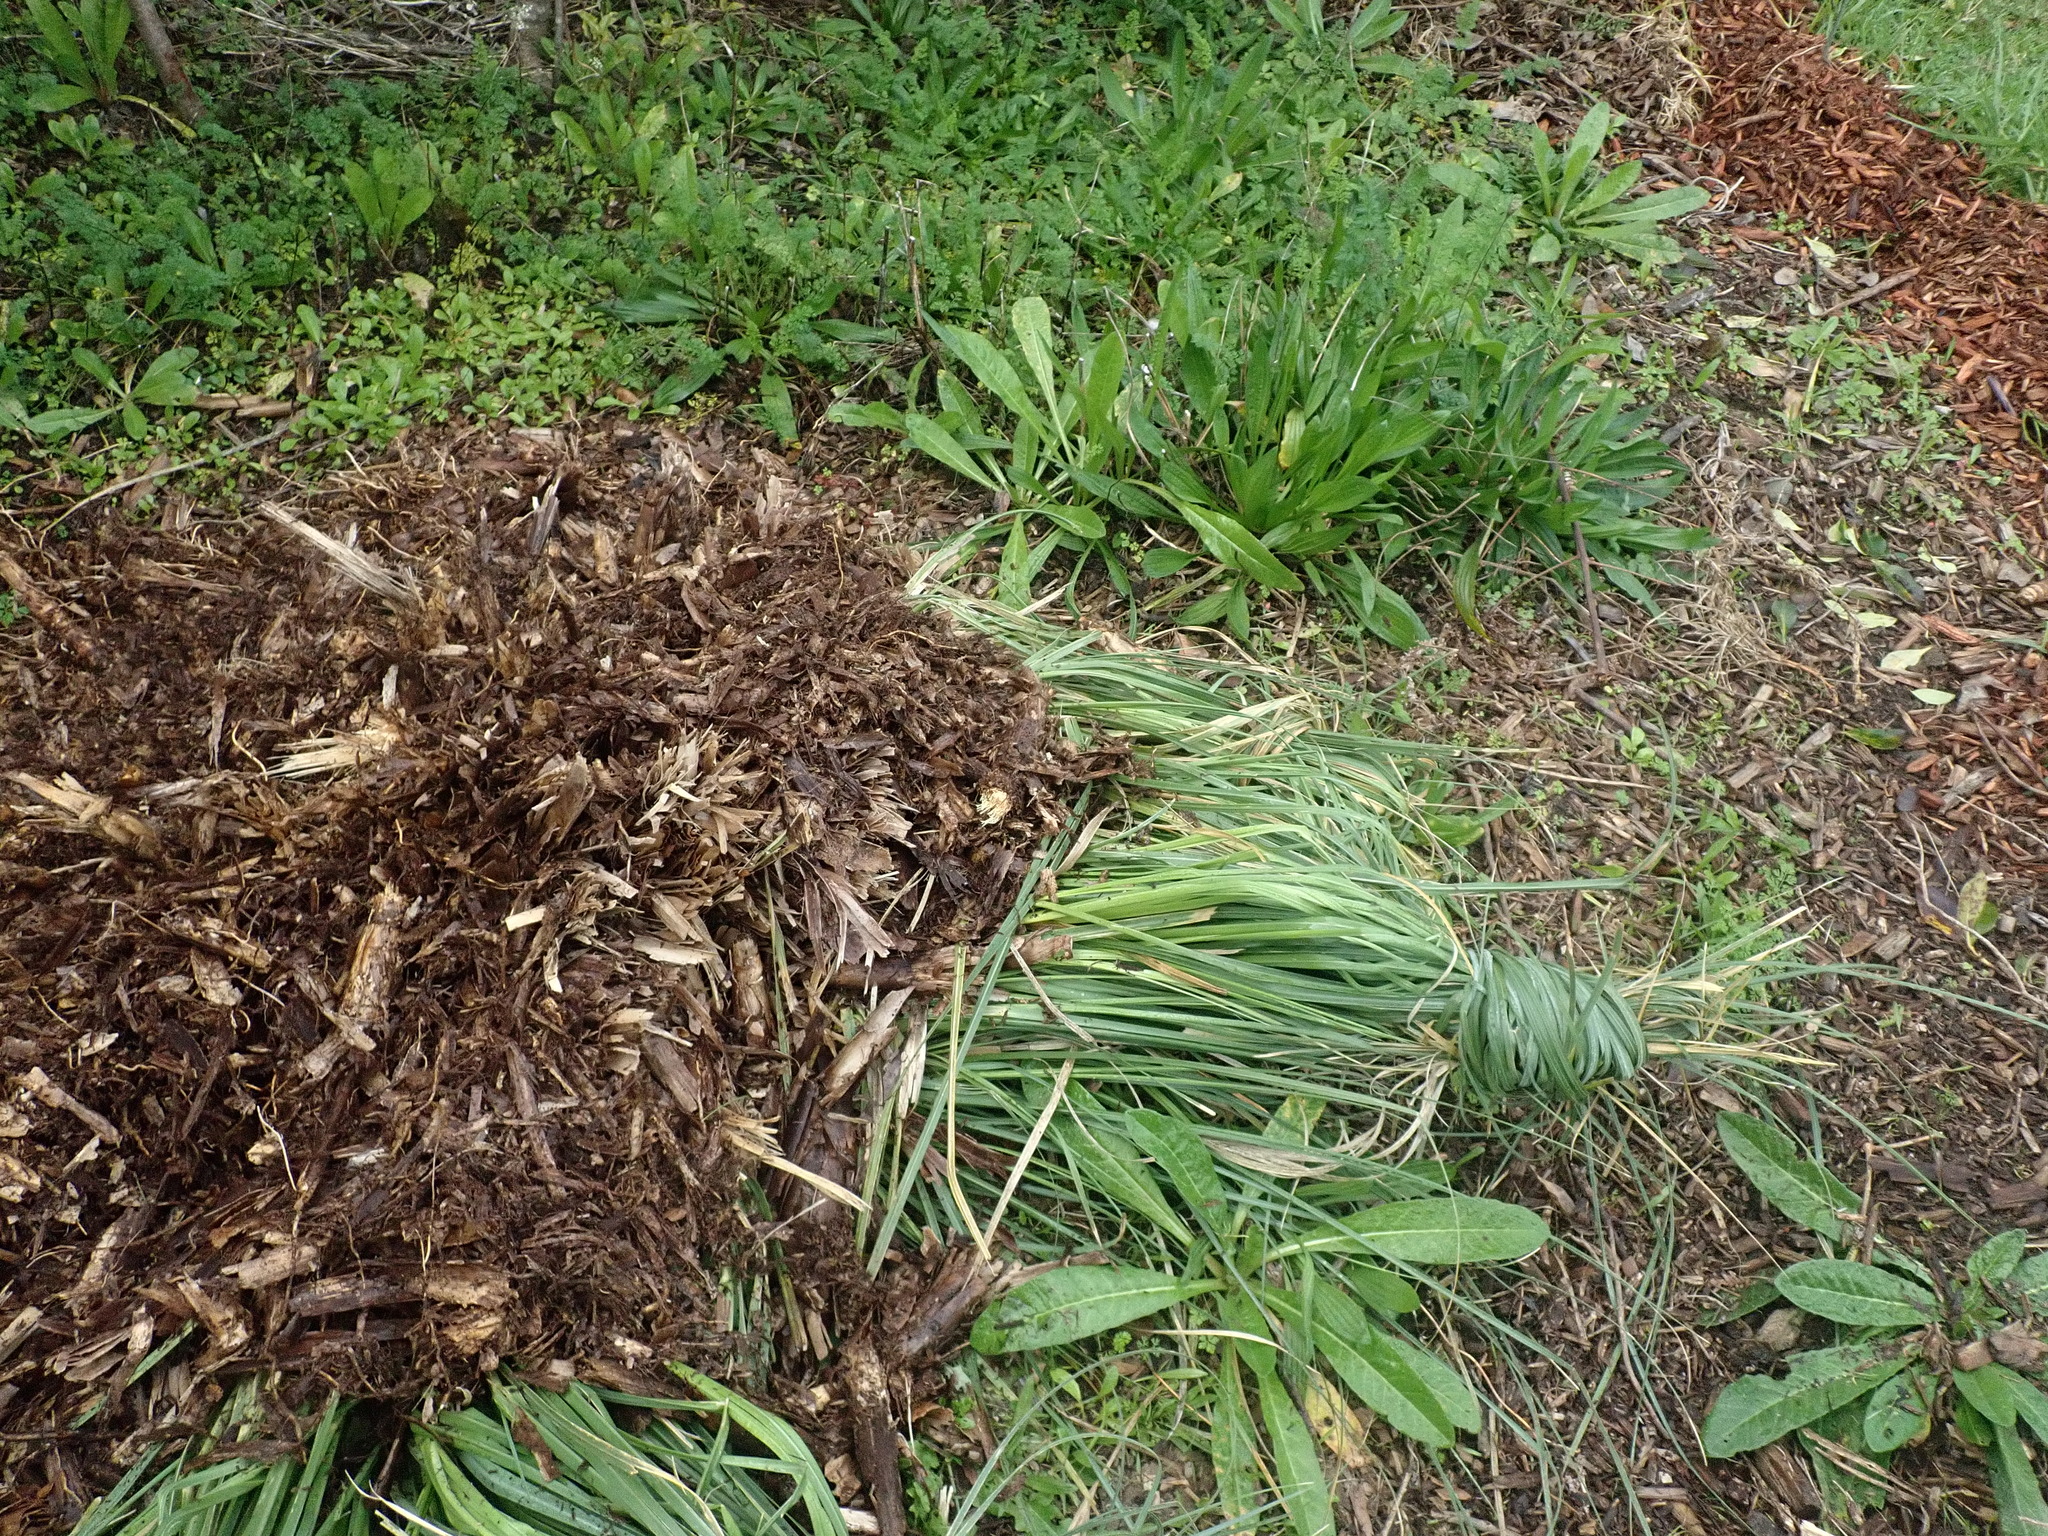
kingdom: Plantae
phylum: Tracheophyta
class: Liliopsida
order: Poales
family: Poaceae
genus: Cortaderia
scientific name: Cortaderia selloana
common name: Uruguayan pampas grass
